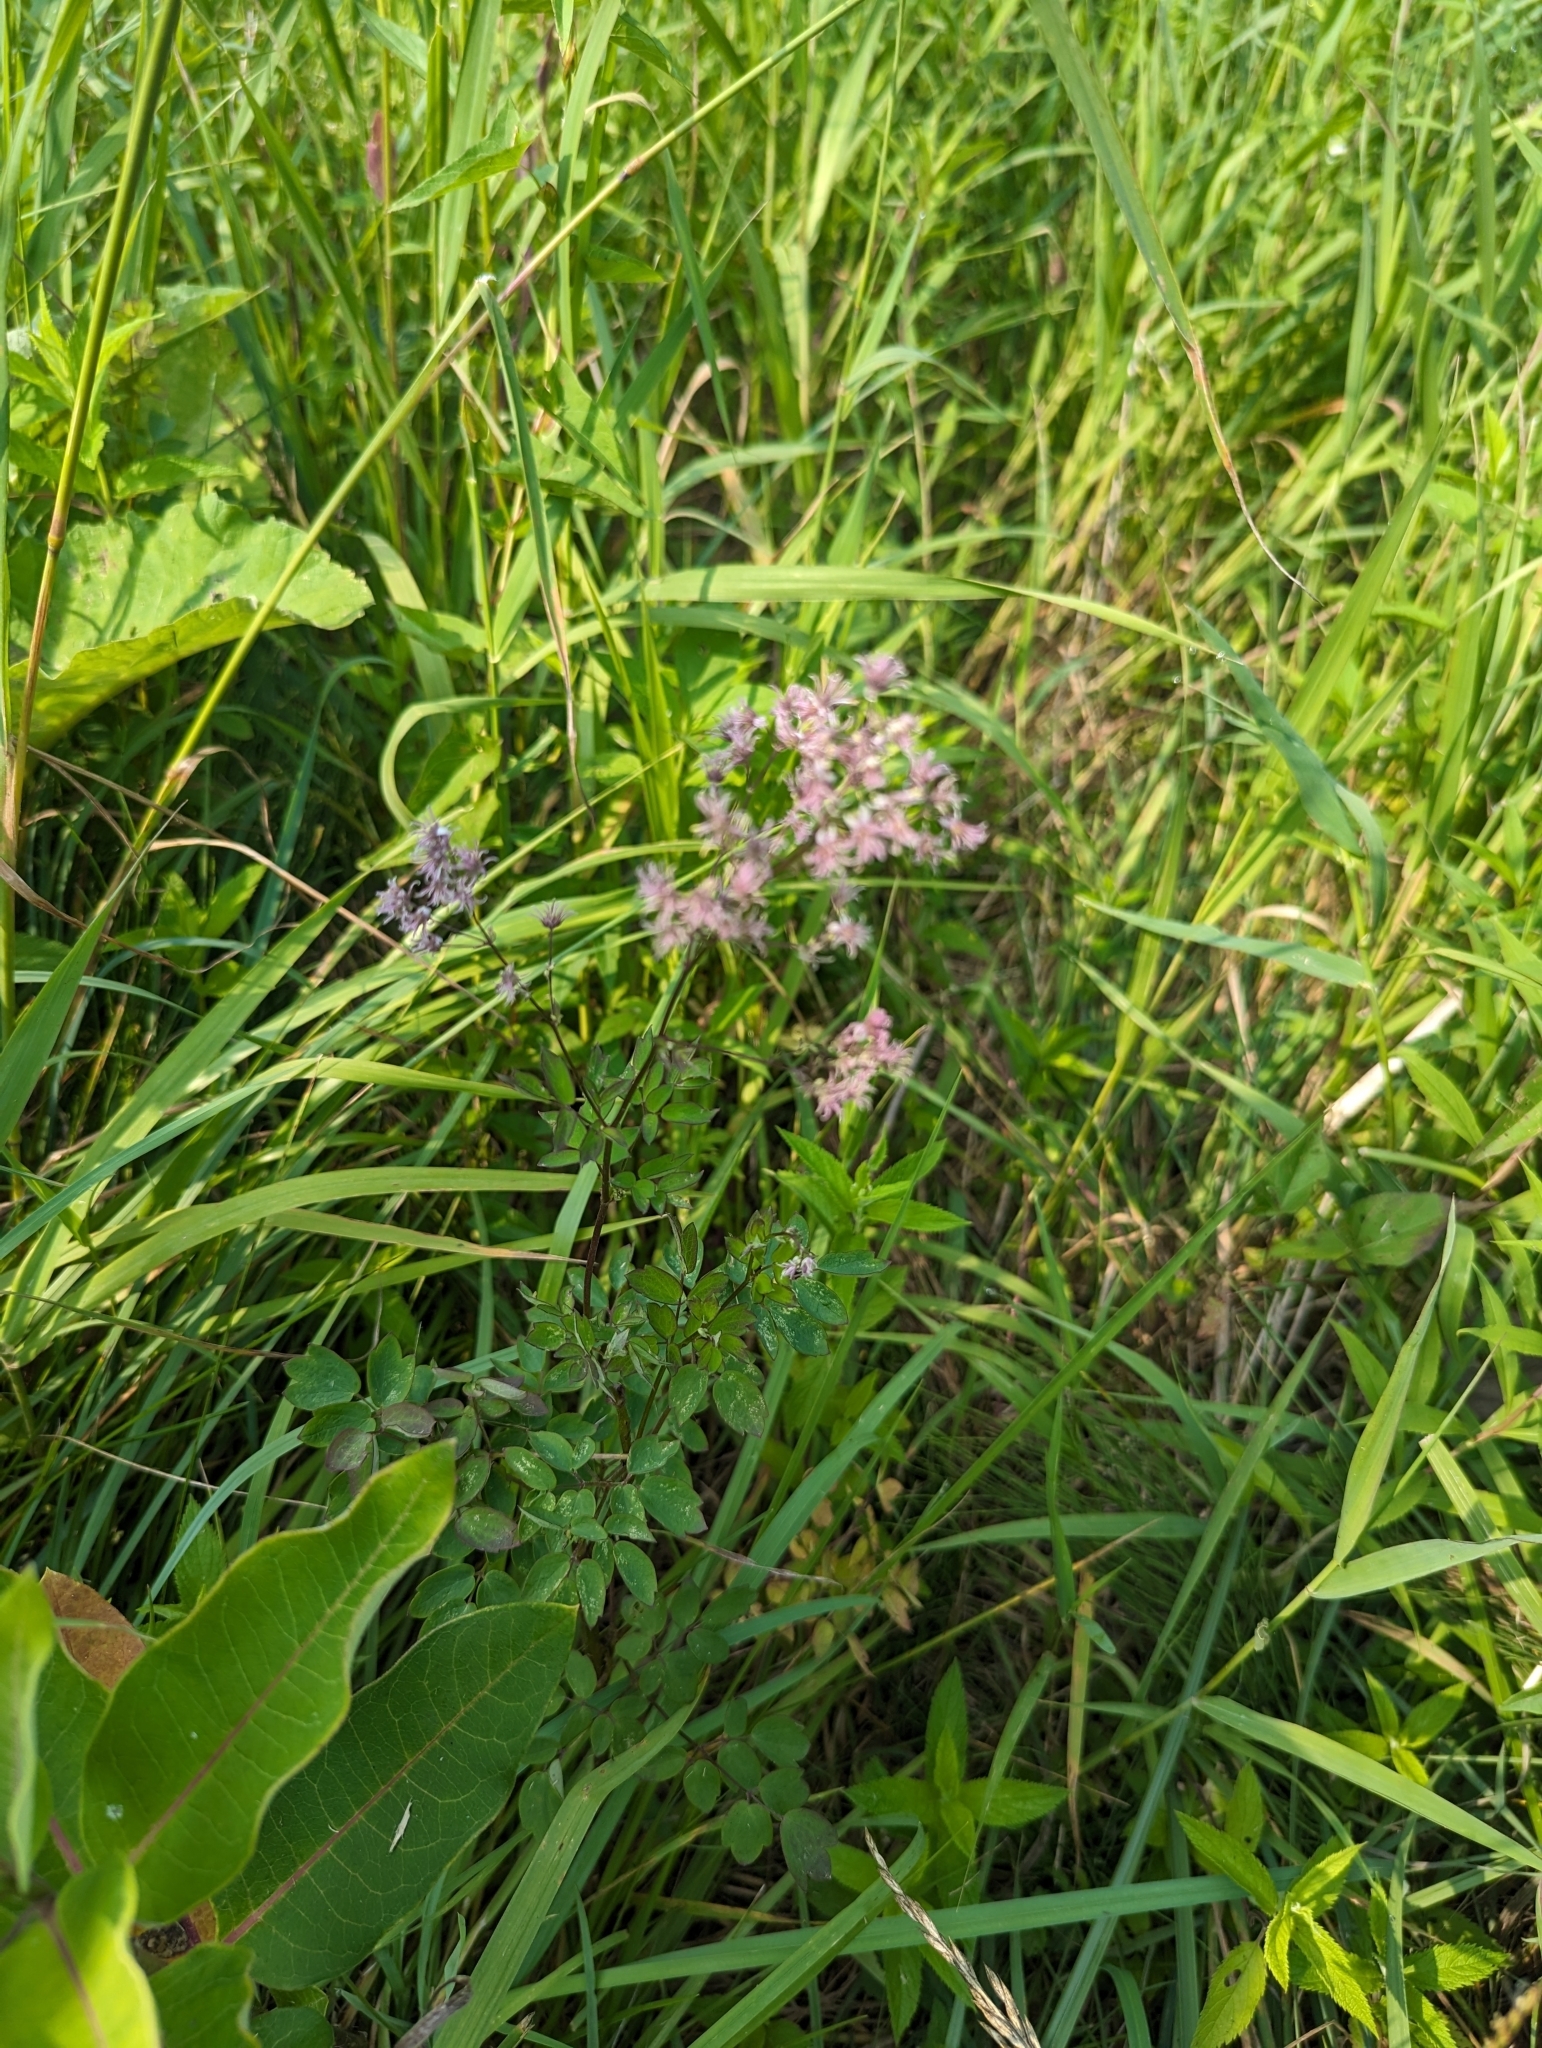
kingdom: Plantae
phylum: Tracheophyta
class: Magnoliopsida
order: Ranunculales
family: Ranunculaceae
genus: Thalictrum
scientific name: Thalictrum dasycarpum
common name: Purple meadow-rue
